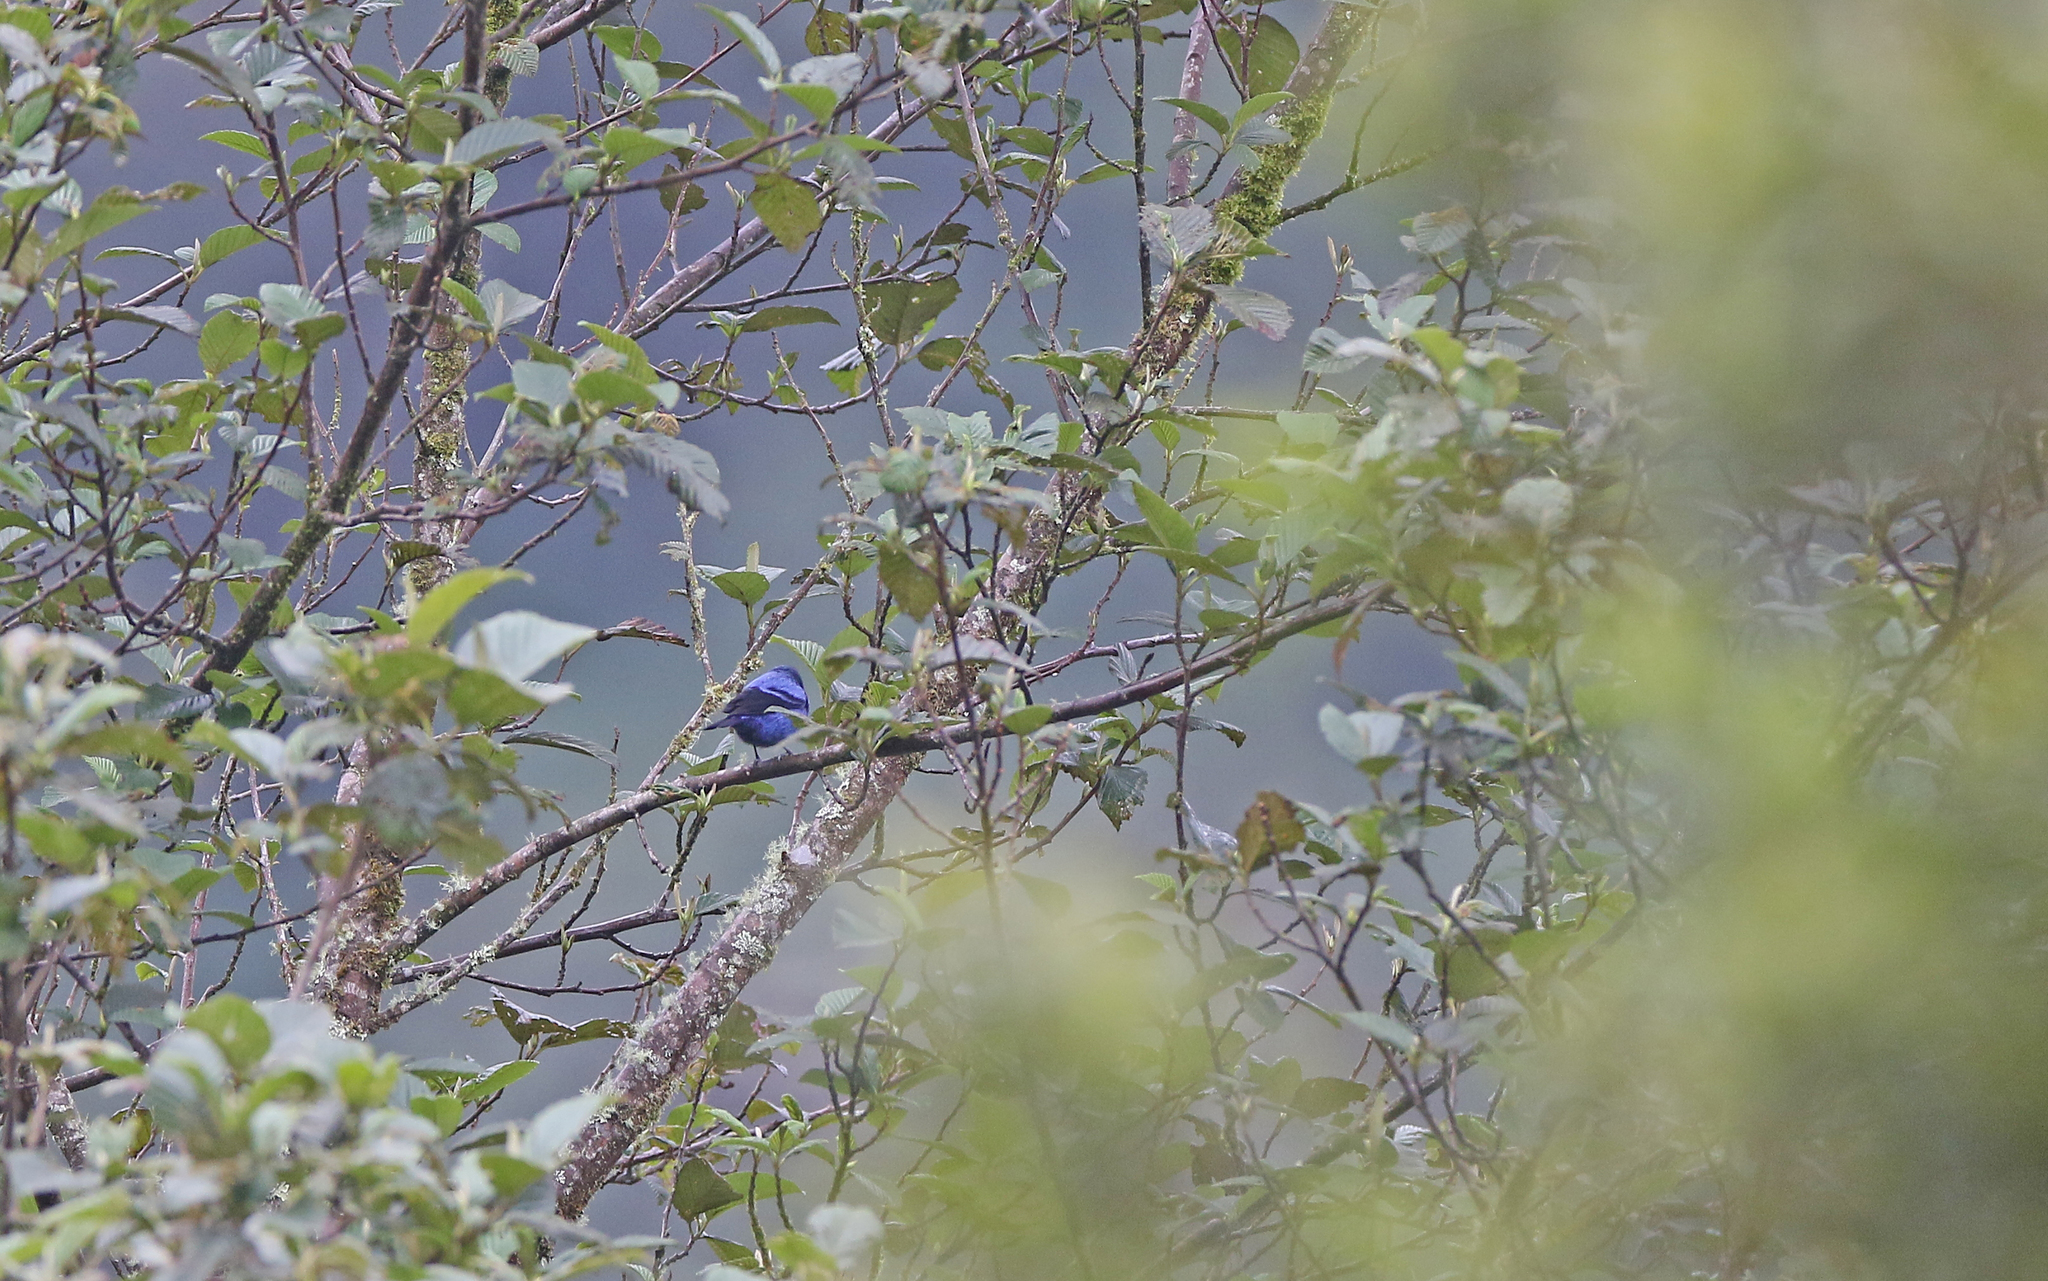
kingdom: Animalia
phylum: Chordata
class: Aves
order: Passeriformes
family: Thraupidae
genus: Tangara
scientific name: Tangara vassorii
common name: Blue-and-black tanager
